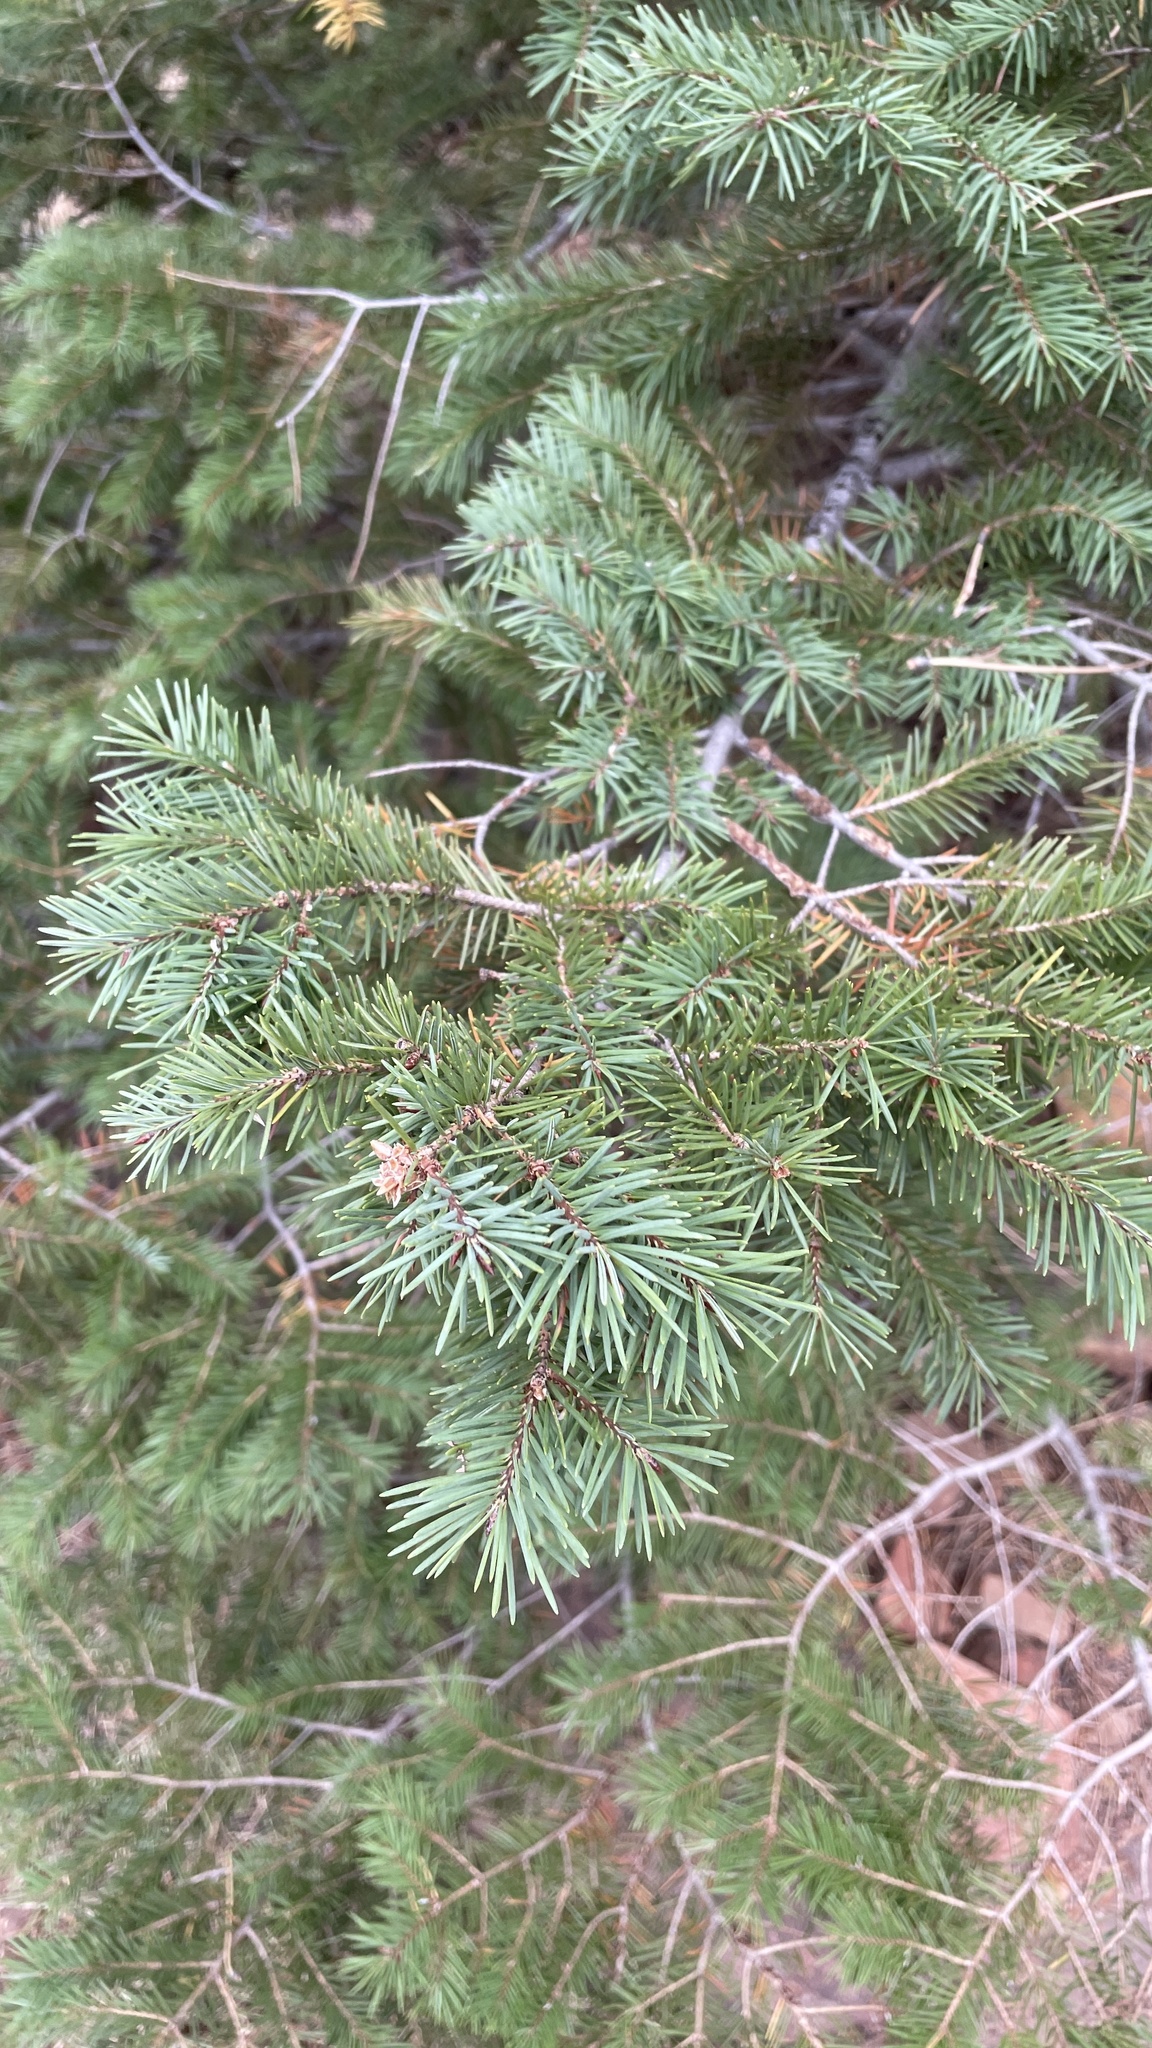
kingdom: Plantae
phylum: Tracheophyta
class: Pinopsida
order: Pinales
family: Pinaceae
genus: Pseudotsuga
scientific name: Pseudotsuga menziesii
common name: Douglas fir
